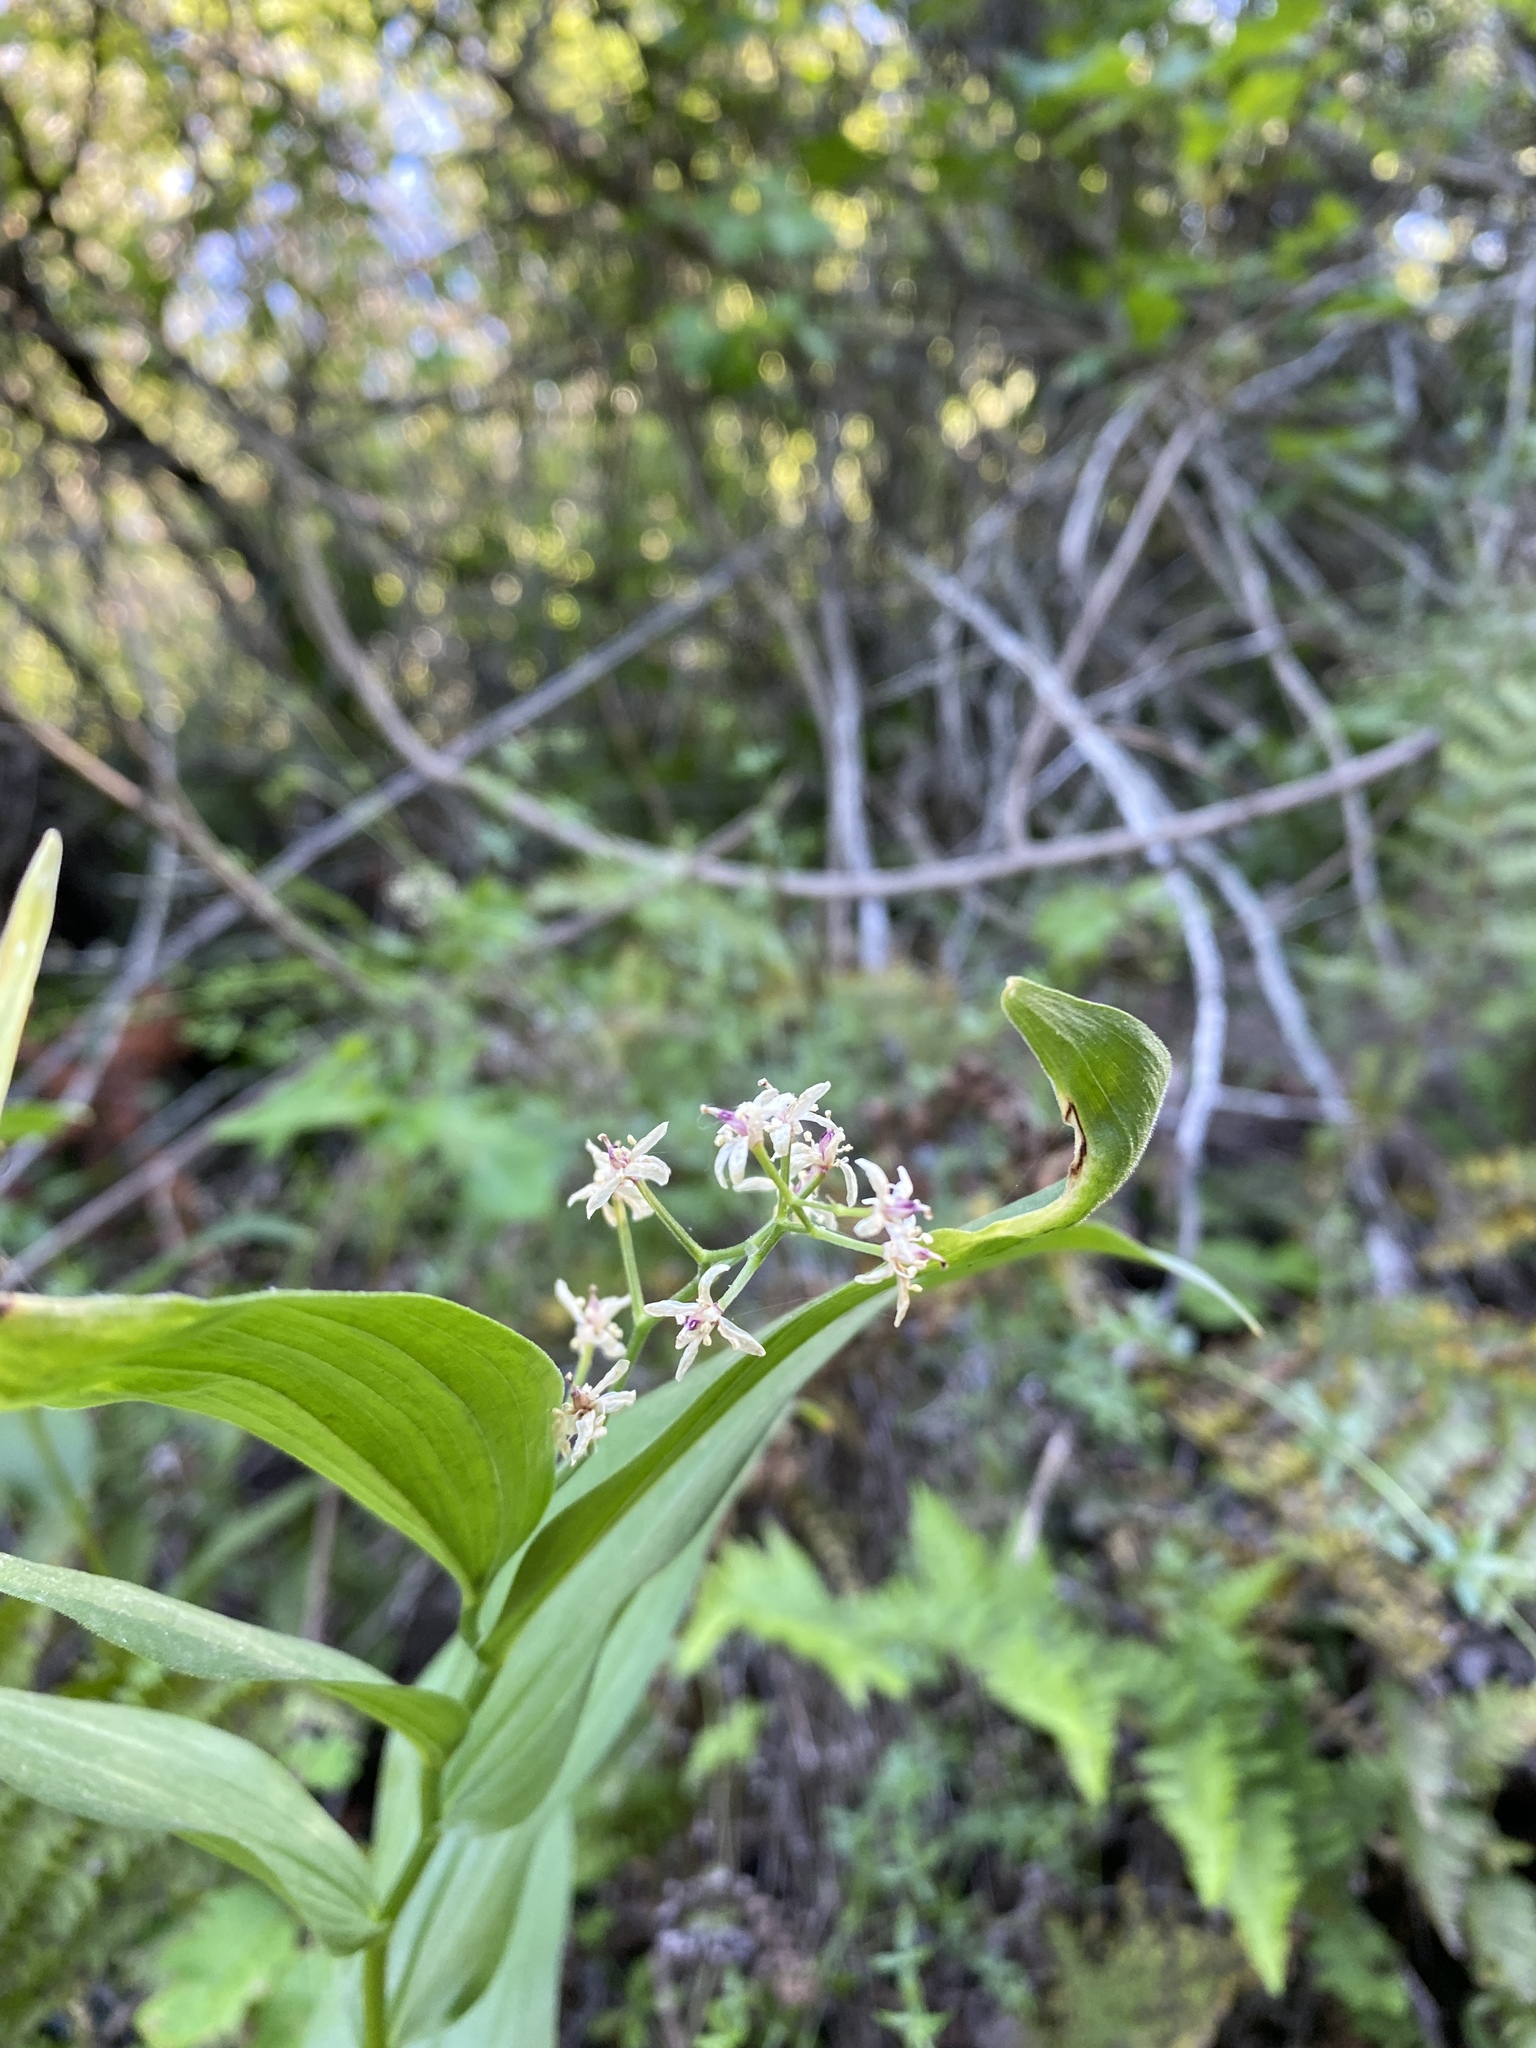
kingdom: Plantae
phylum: Tracheophyta
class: Liliopsida
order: Asparagales
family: Asparagaceae
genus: Maianthemum
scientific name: Maianthemum stellatum
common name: Little false solomon's seal
